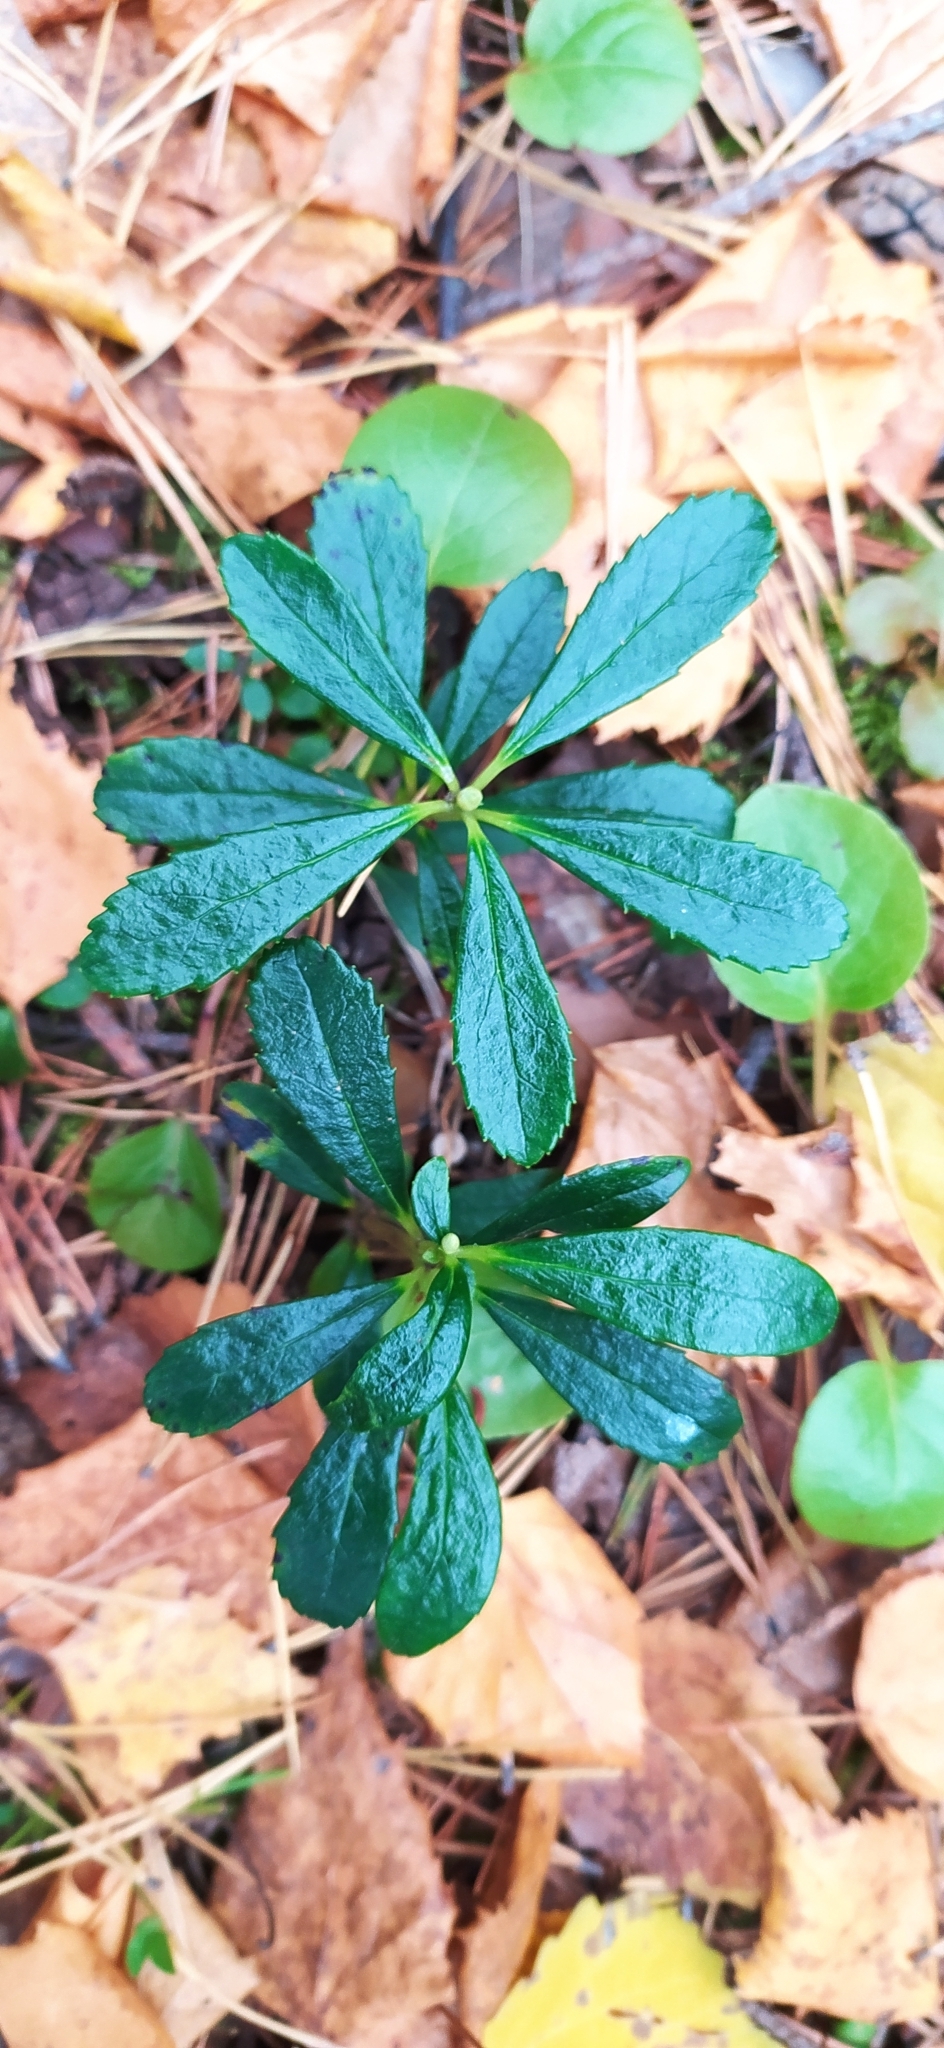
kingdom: Plantae
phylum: Tracheophyta
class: Magnoliopsida
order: Ericales
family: Ericaceae
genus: Chimaphila
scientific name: Chimaphila umbellata
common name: Pipsissewa
